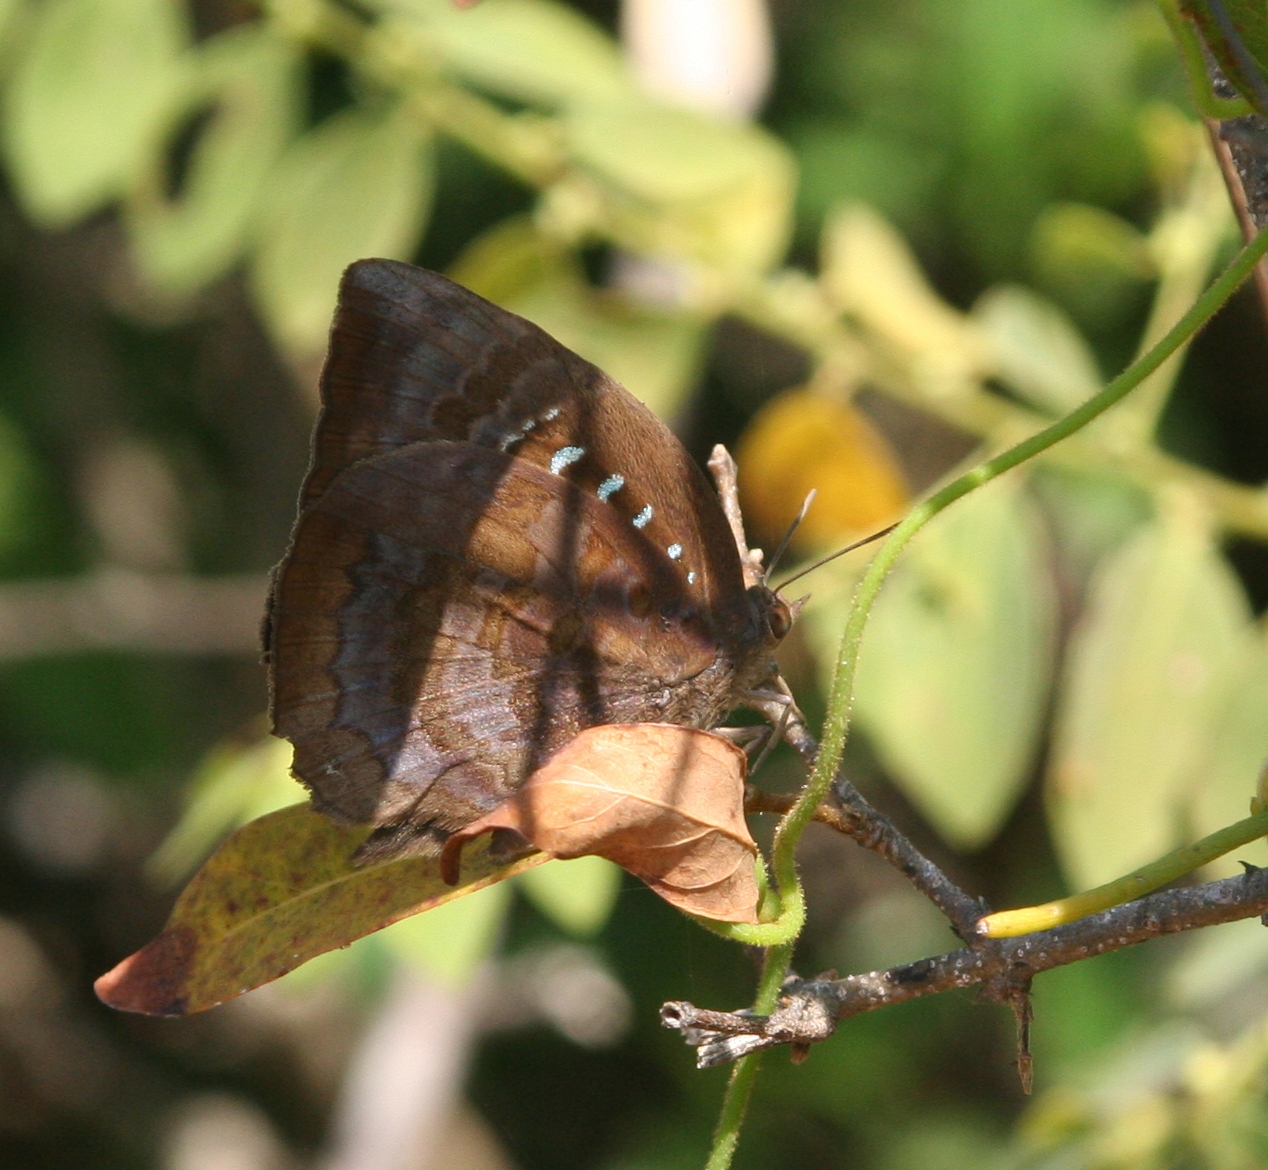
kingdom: Animalia
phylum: Arthropoda
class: Insecta
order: Lepidoptera
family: Lycaenidae
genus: Arhopala
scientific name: Arhopala centaurus
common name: Dull oak-blue
